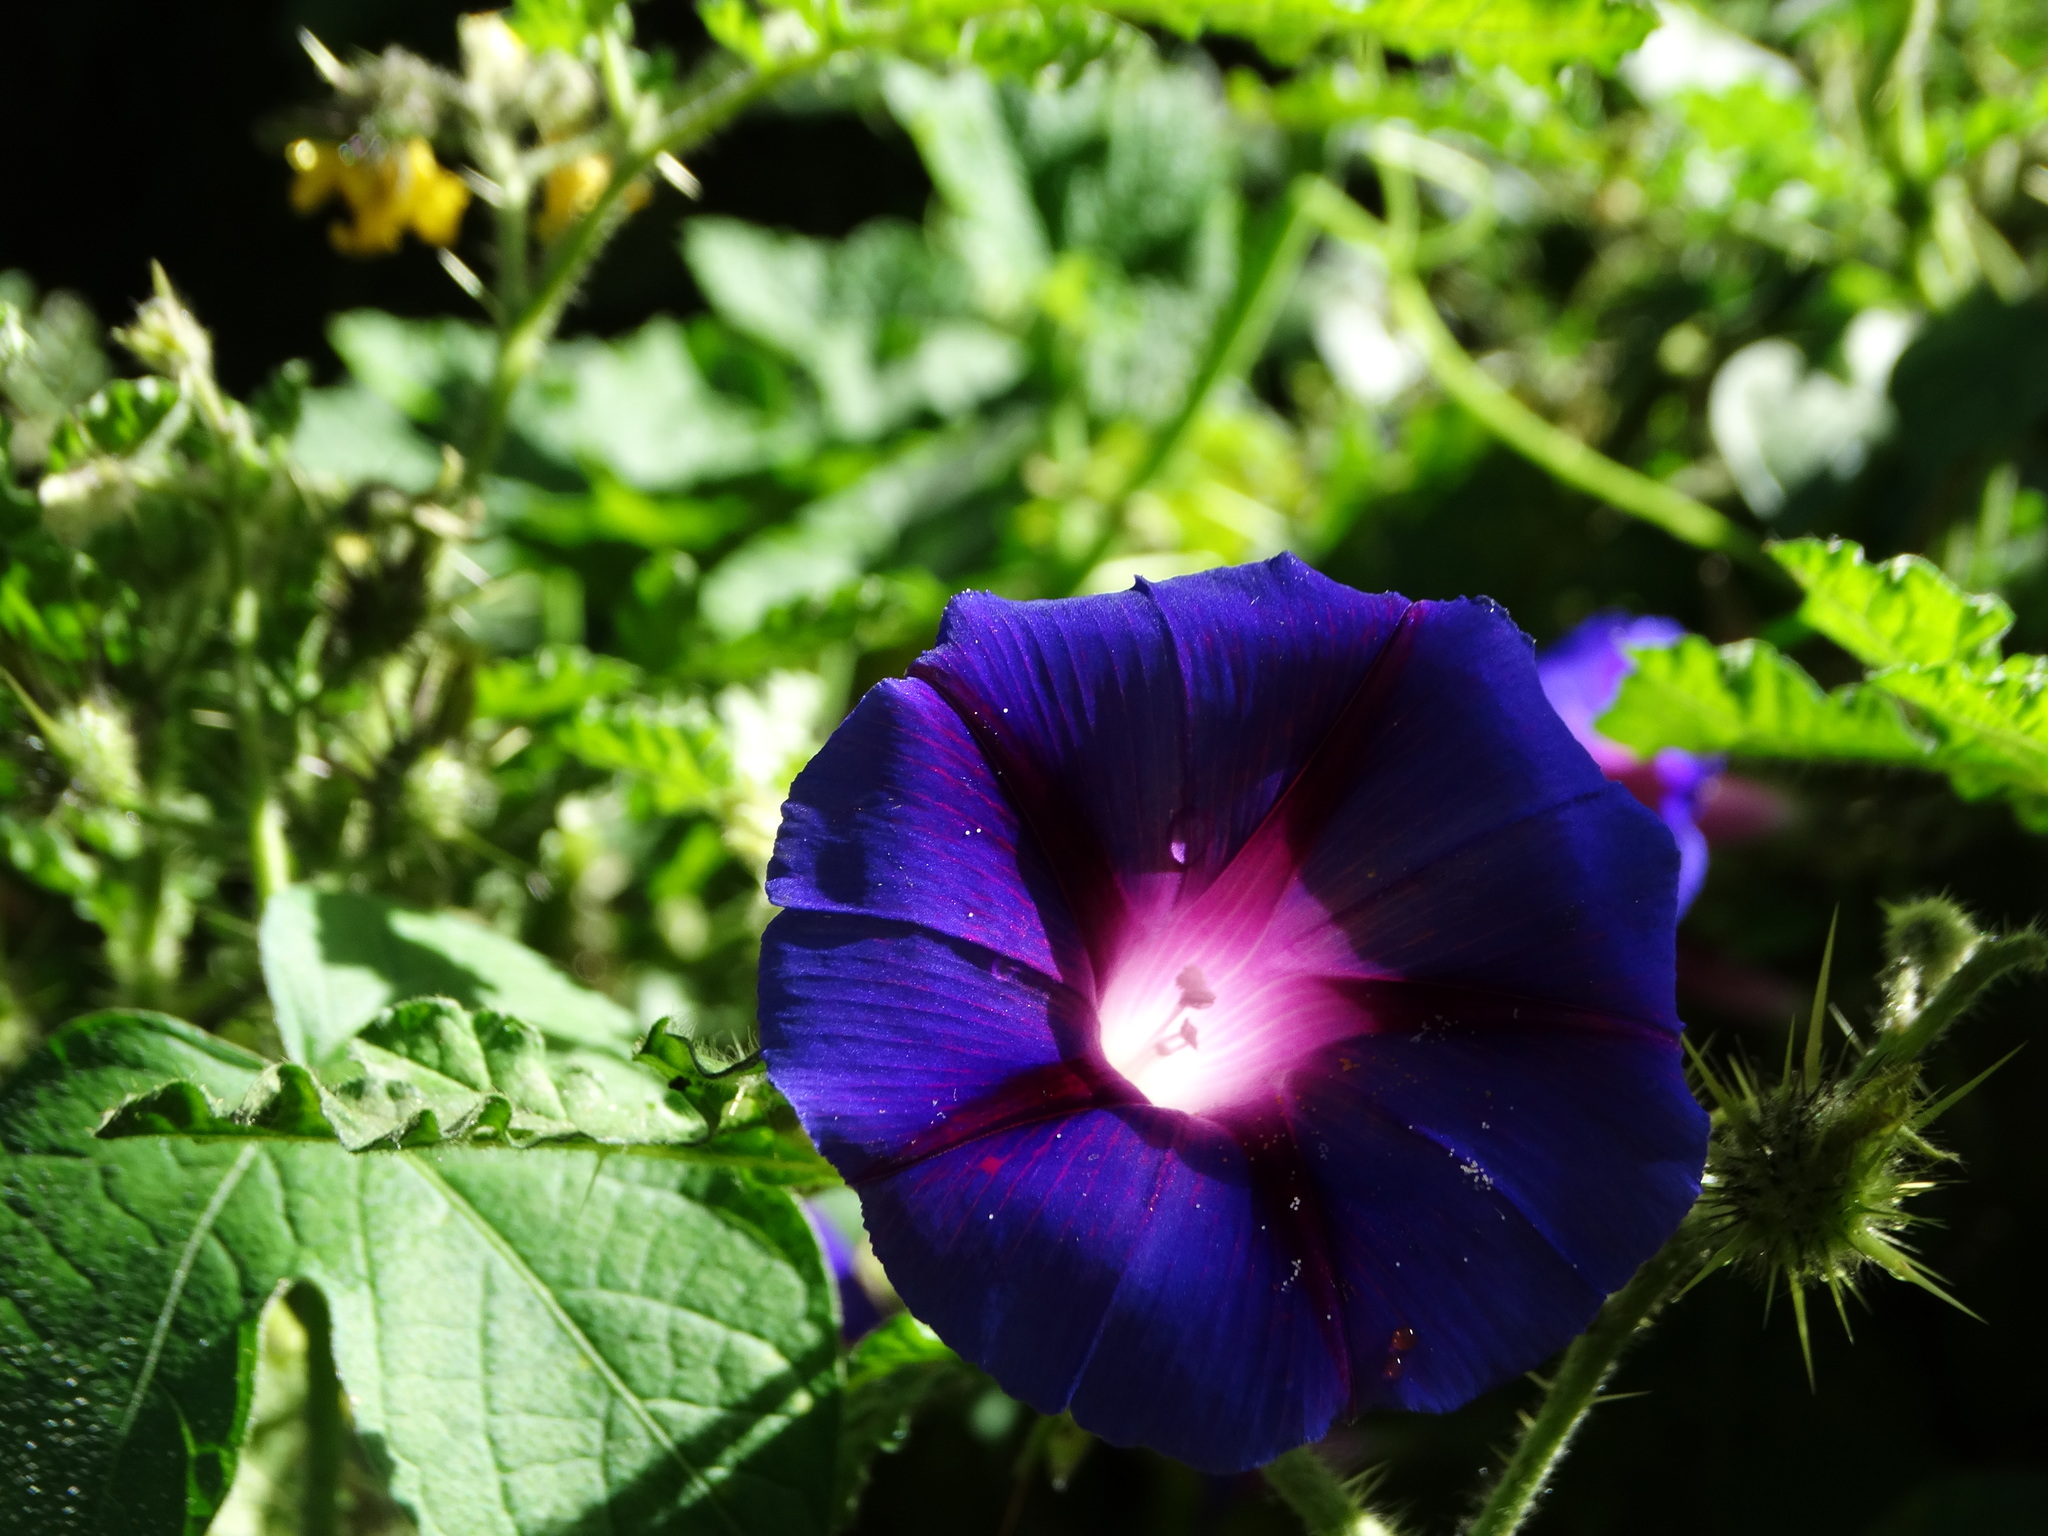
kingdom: Plantae
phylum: Tracheophyta
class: Magnoliopsida
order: Solanales
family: Convolvulaceae
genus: Ipomoea
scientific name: Ipomoea purpurea
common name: Common morning-glory
